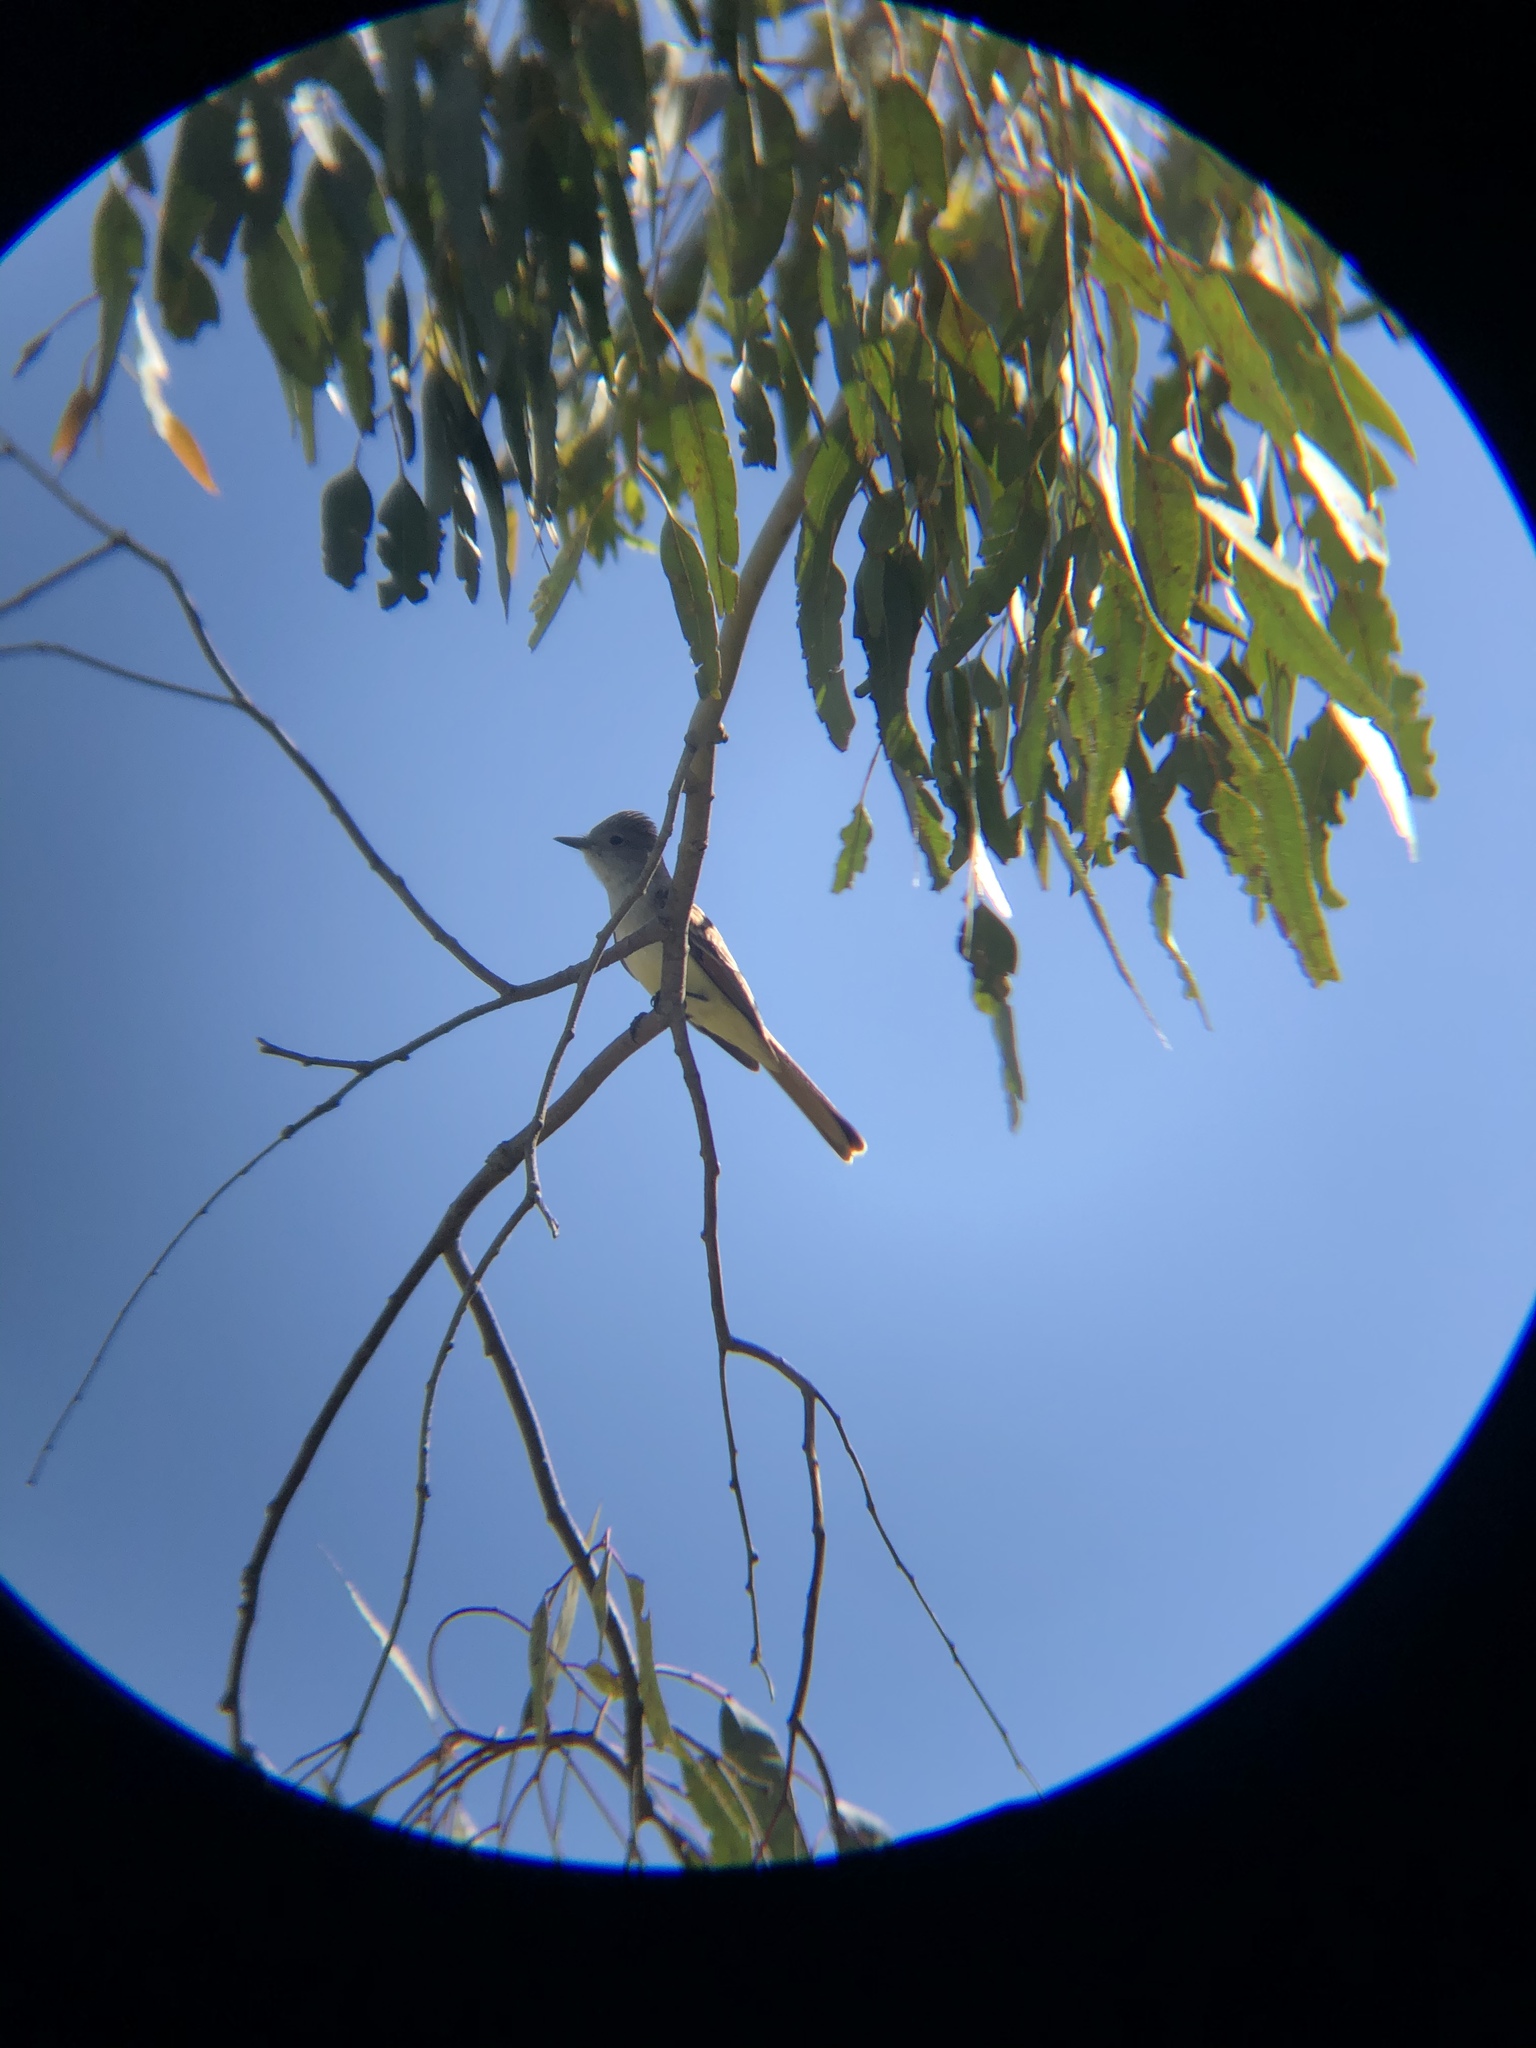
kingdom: Animalia
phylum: Chordata
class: Aves
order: Passeriformes
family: Tyrannidae
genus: Myiarchus
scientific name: Myiarchus cinerascens
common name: Ash-throated flycatcher
